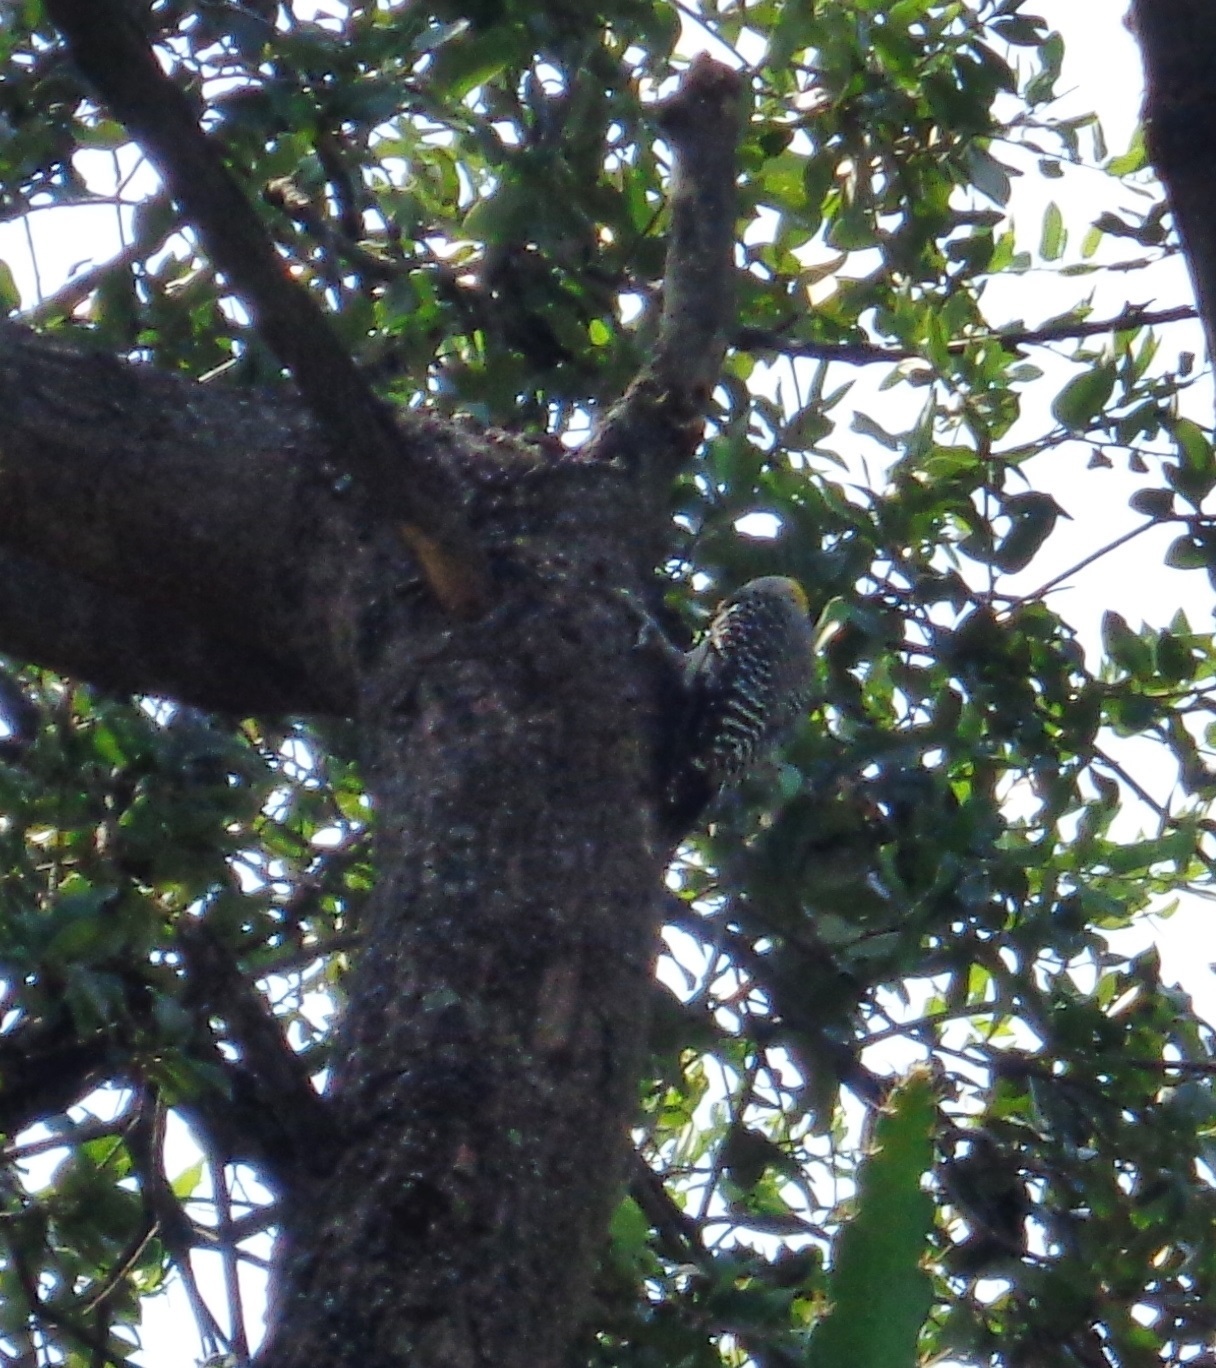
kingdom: Animalia
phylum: Chordata
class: Aves
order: Piciformes
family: Picidae
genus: Melanerpes
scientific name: Melanerpes aurifrons
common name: Golden-fronted woodpecker
